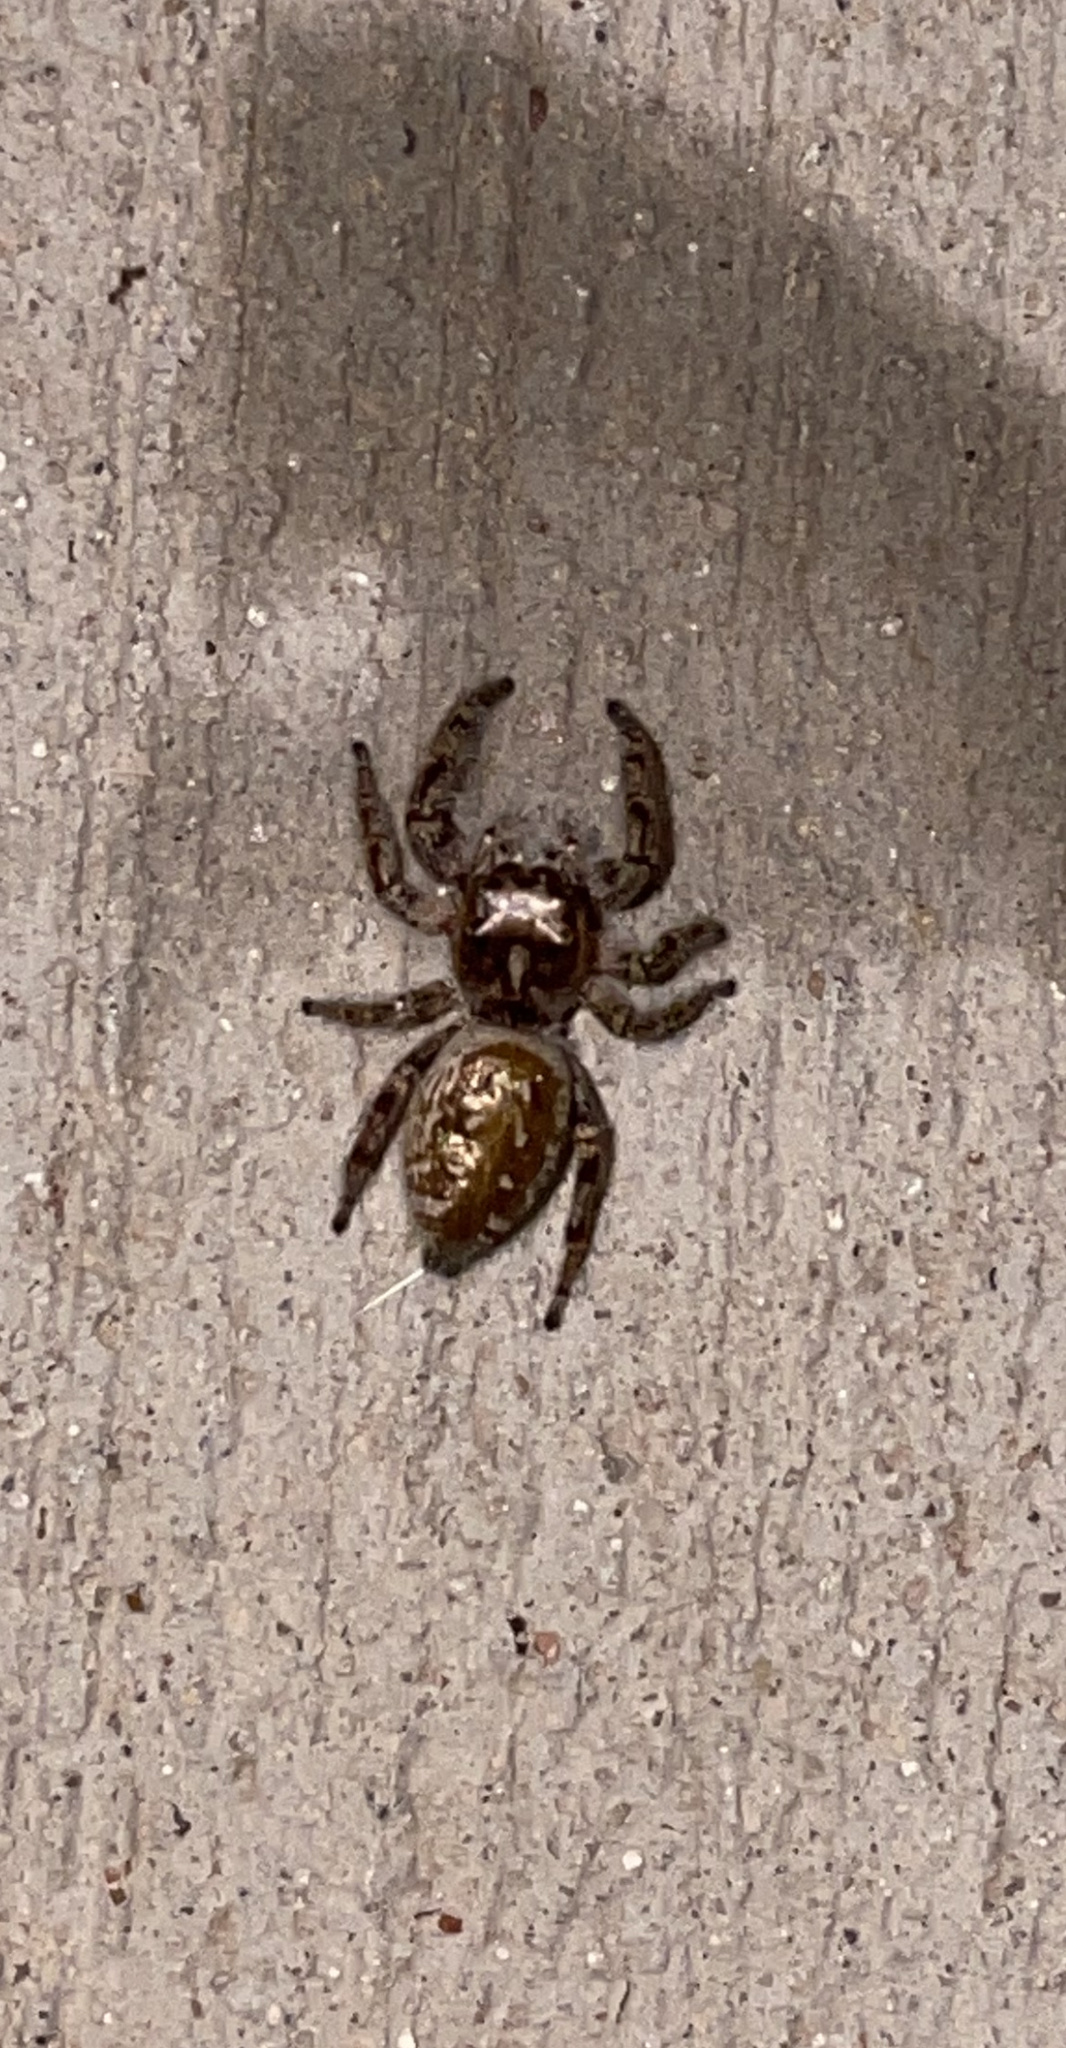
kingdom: Animalia
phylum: Arthropoda
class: Arachnida
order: Araneae
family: Salticidae
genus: Eris
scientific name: Eris militaris
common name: Bronze jumper
